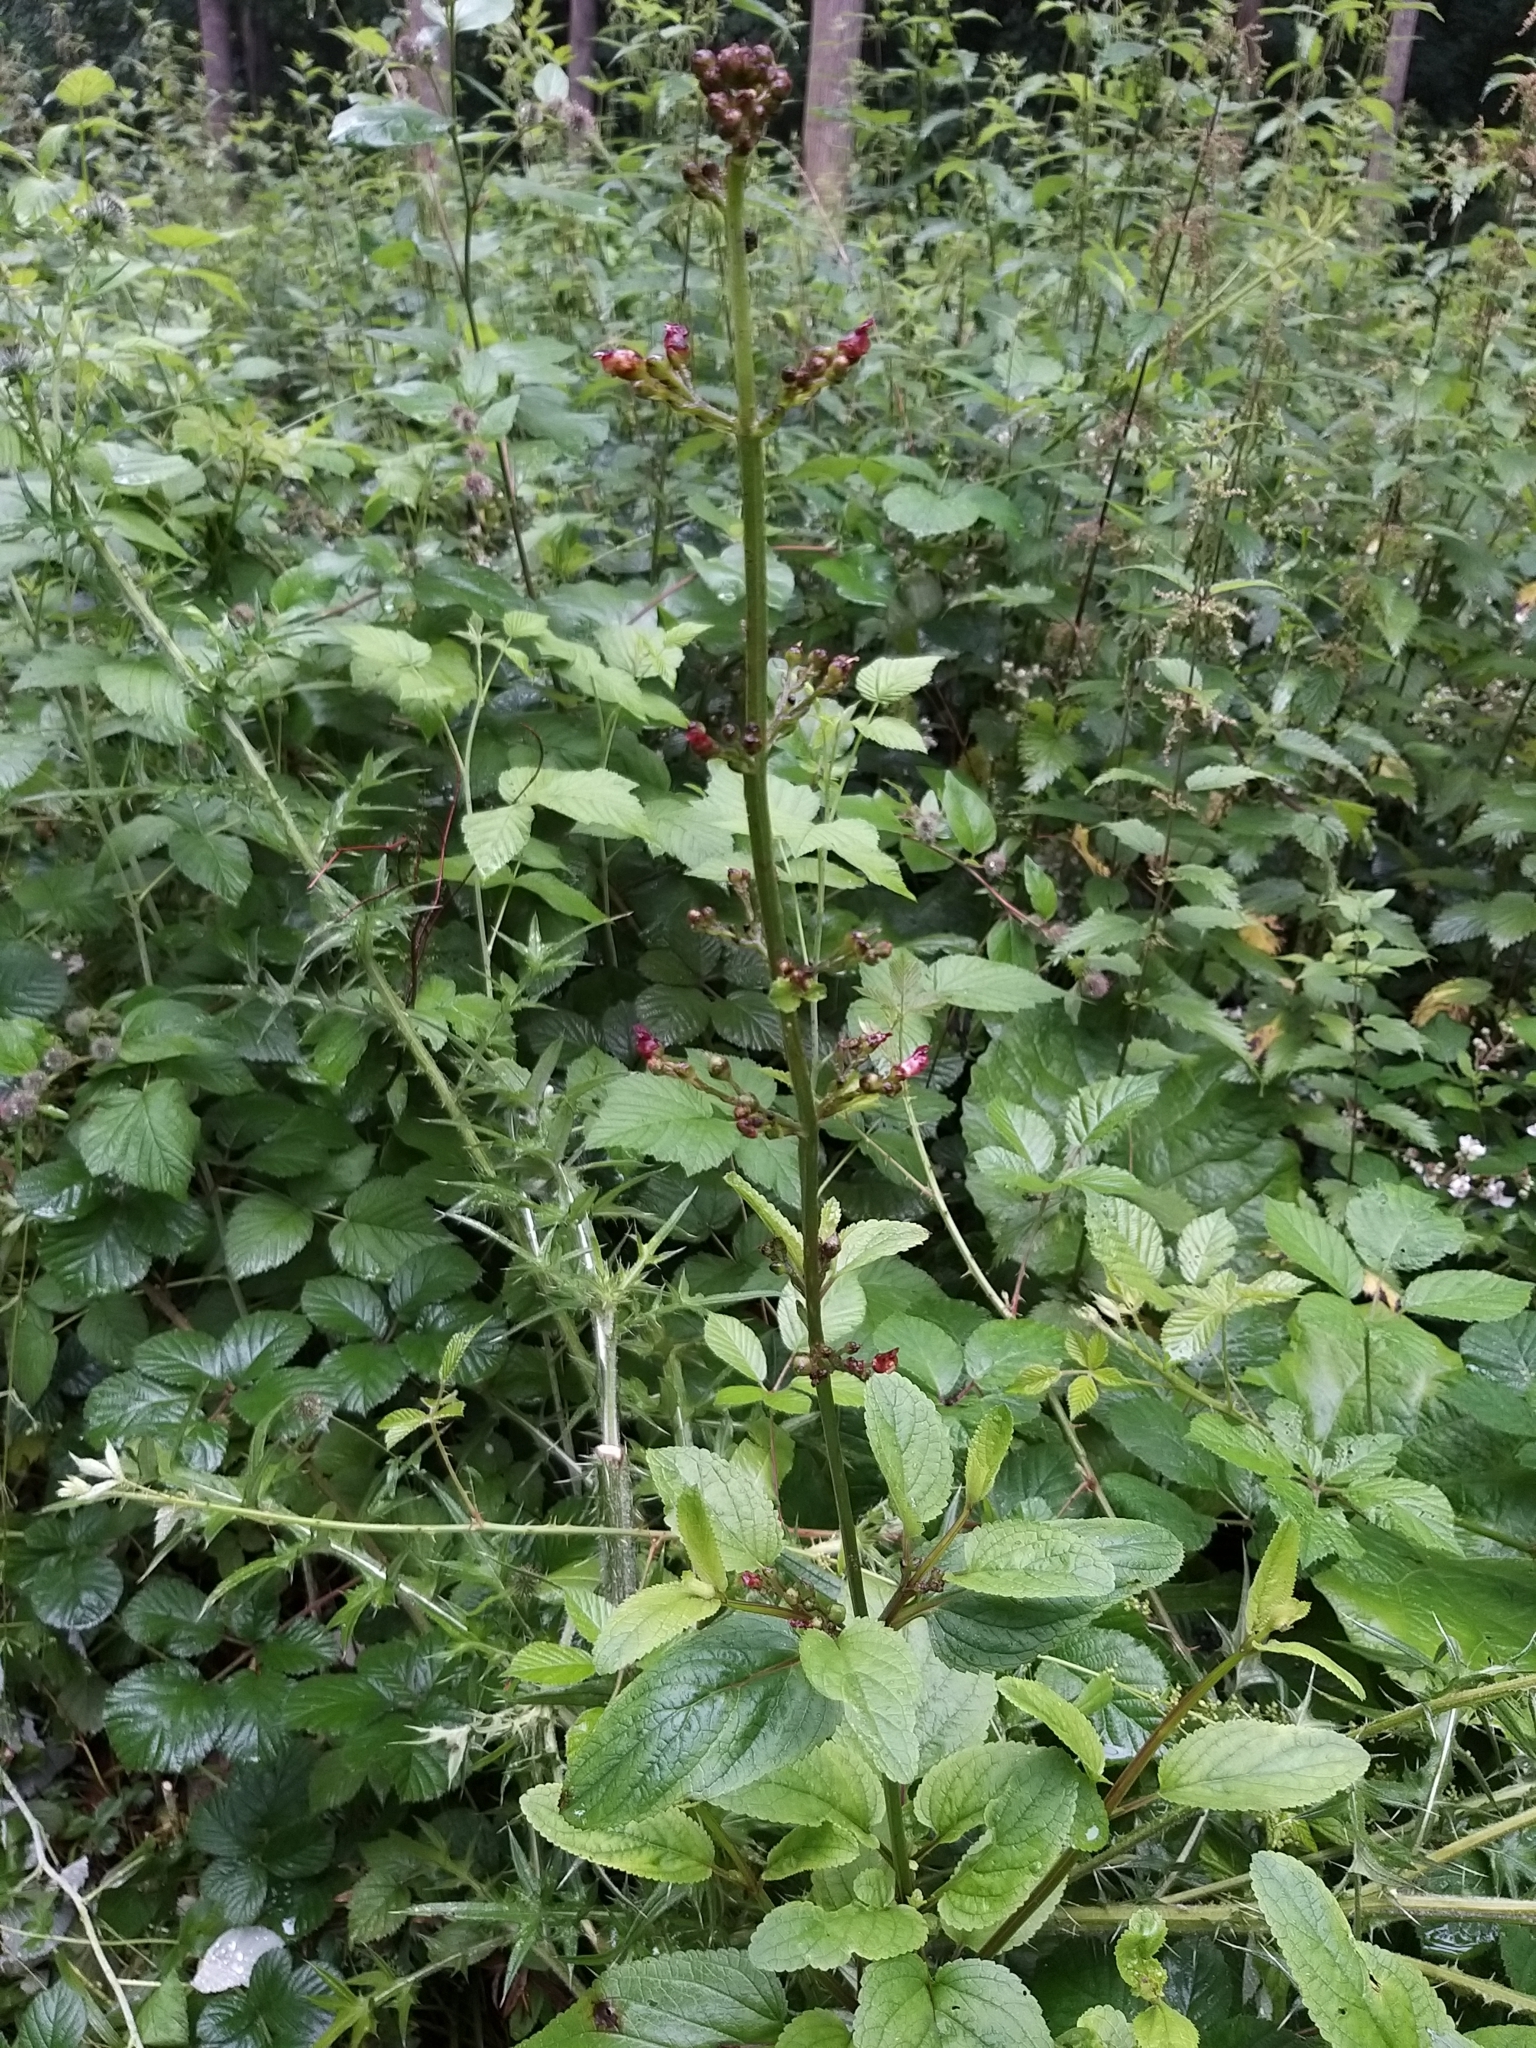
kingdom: Plantae
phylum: Tracheophyta
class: Magnoliopsida
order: Lamiales
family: Scrophulariaceae
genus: Scrophularia
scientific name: Scrophularia nodosa
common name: Common figwort
